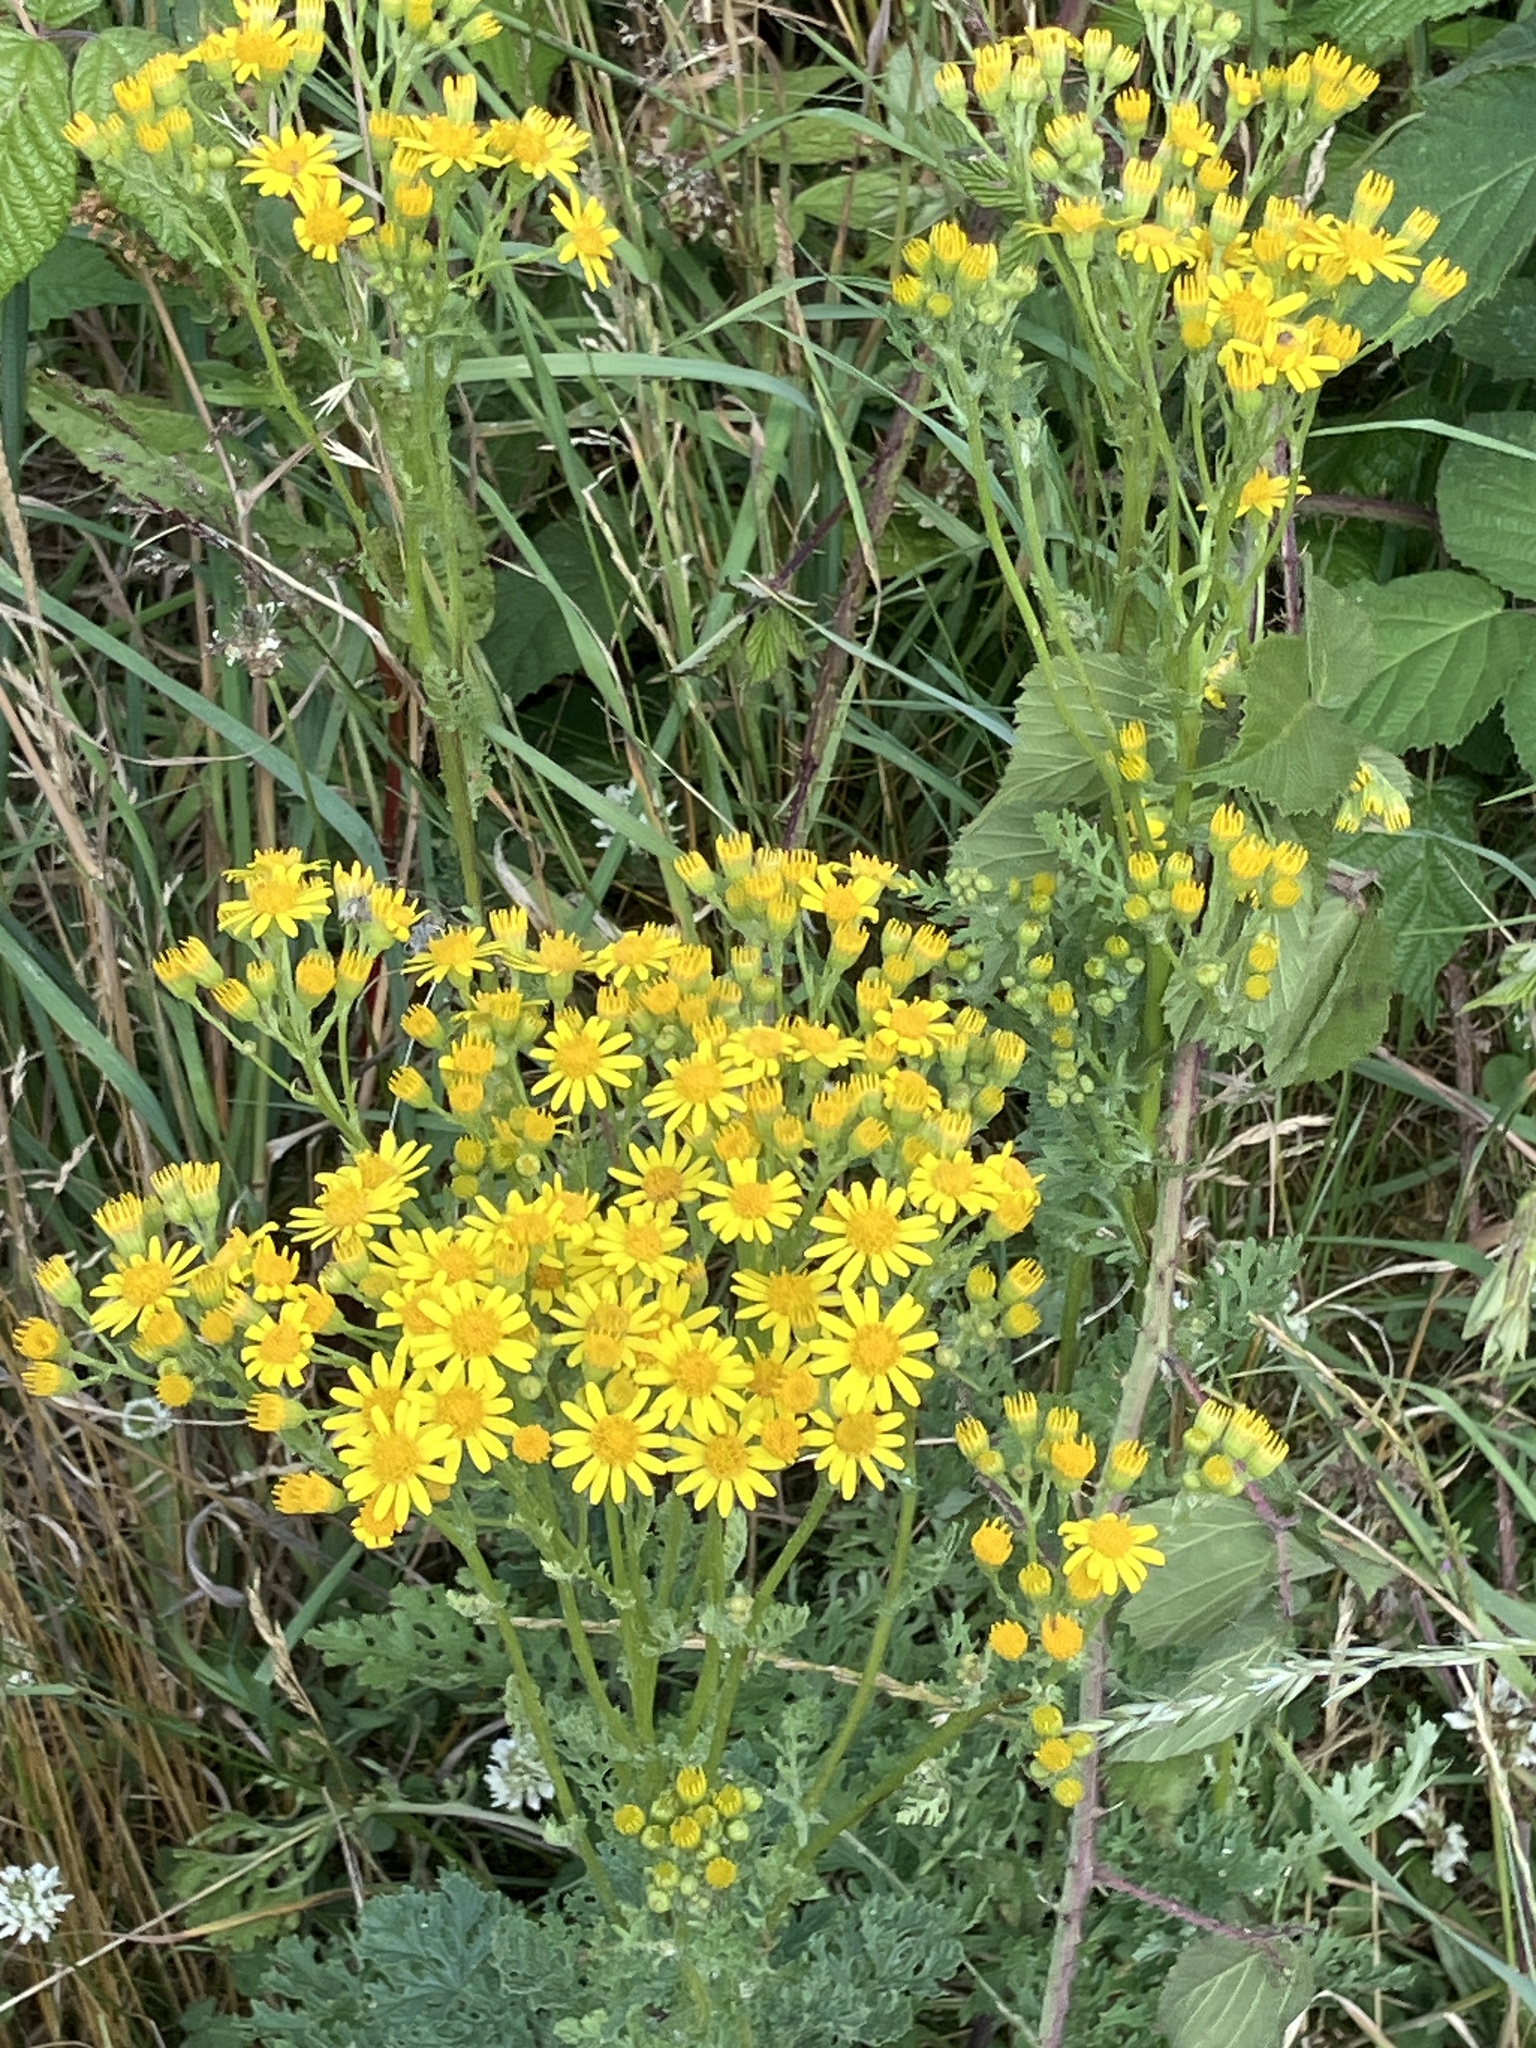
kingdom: Plantae
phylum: Tracheophyta
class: Magnoliopsida
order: Asterales
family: Asteraceae
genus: Jacobaea
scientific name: Jacobaea vulgaris
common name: Stinking willie
